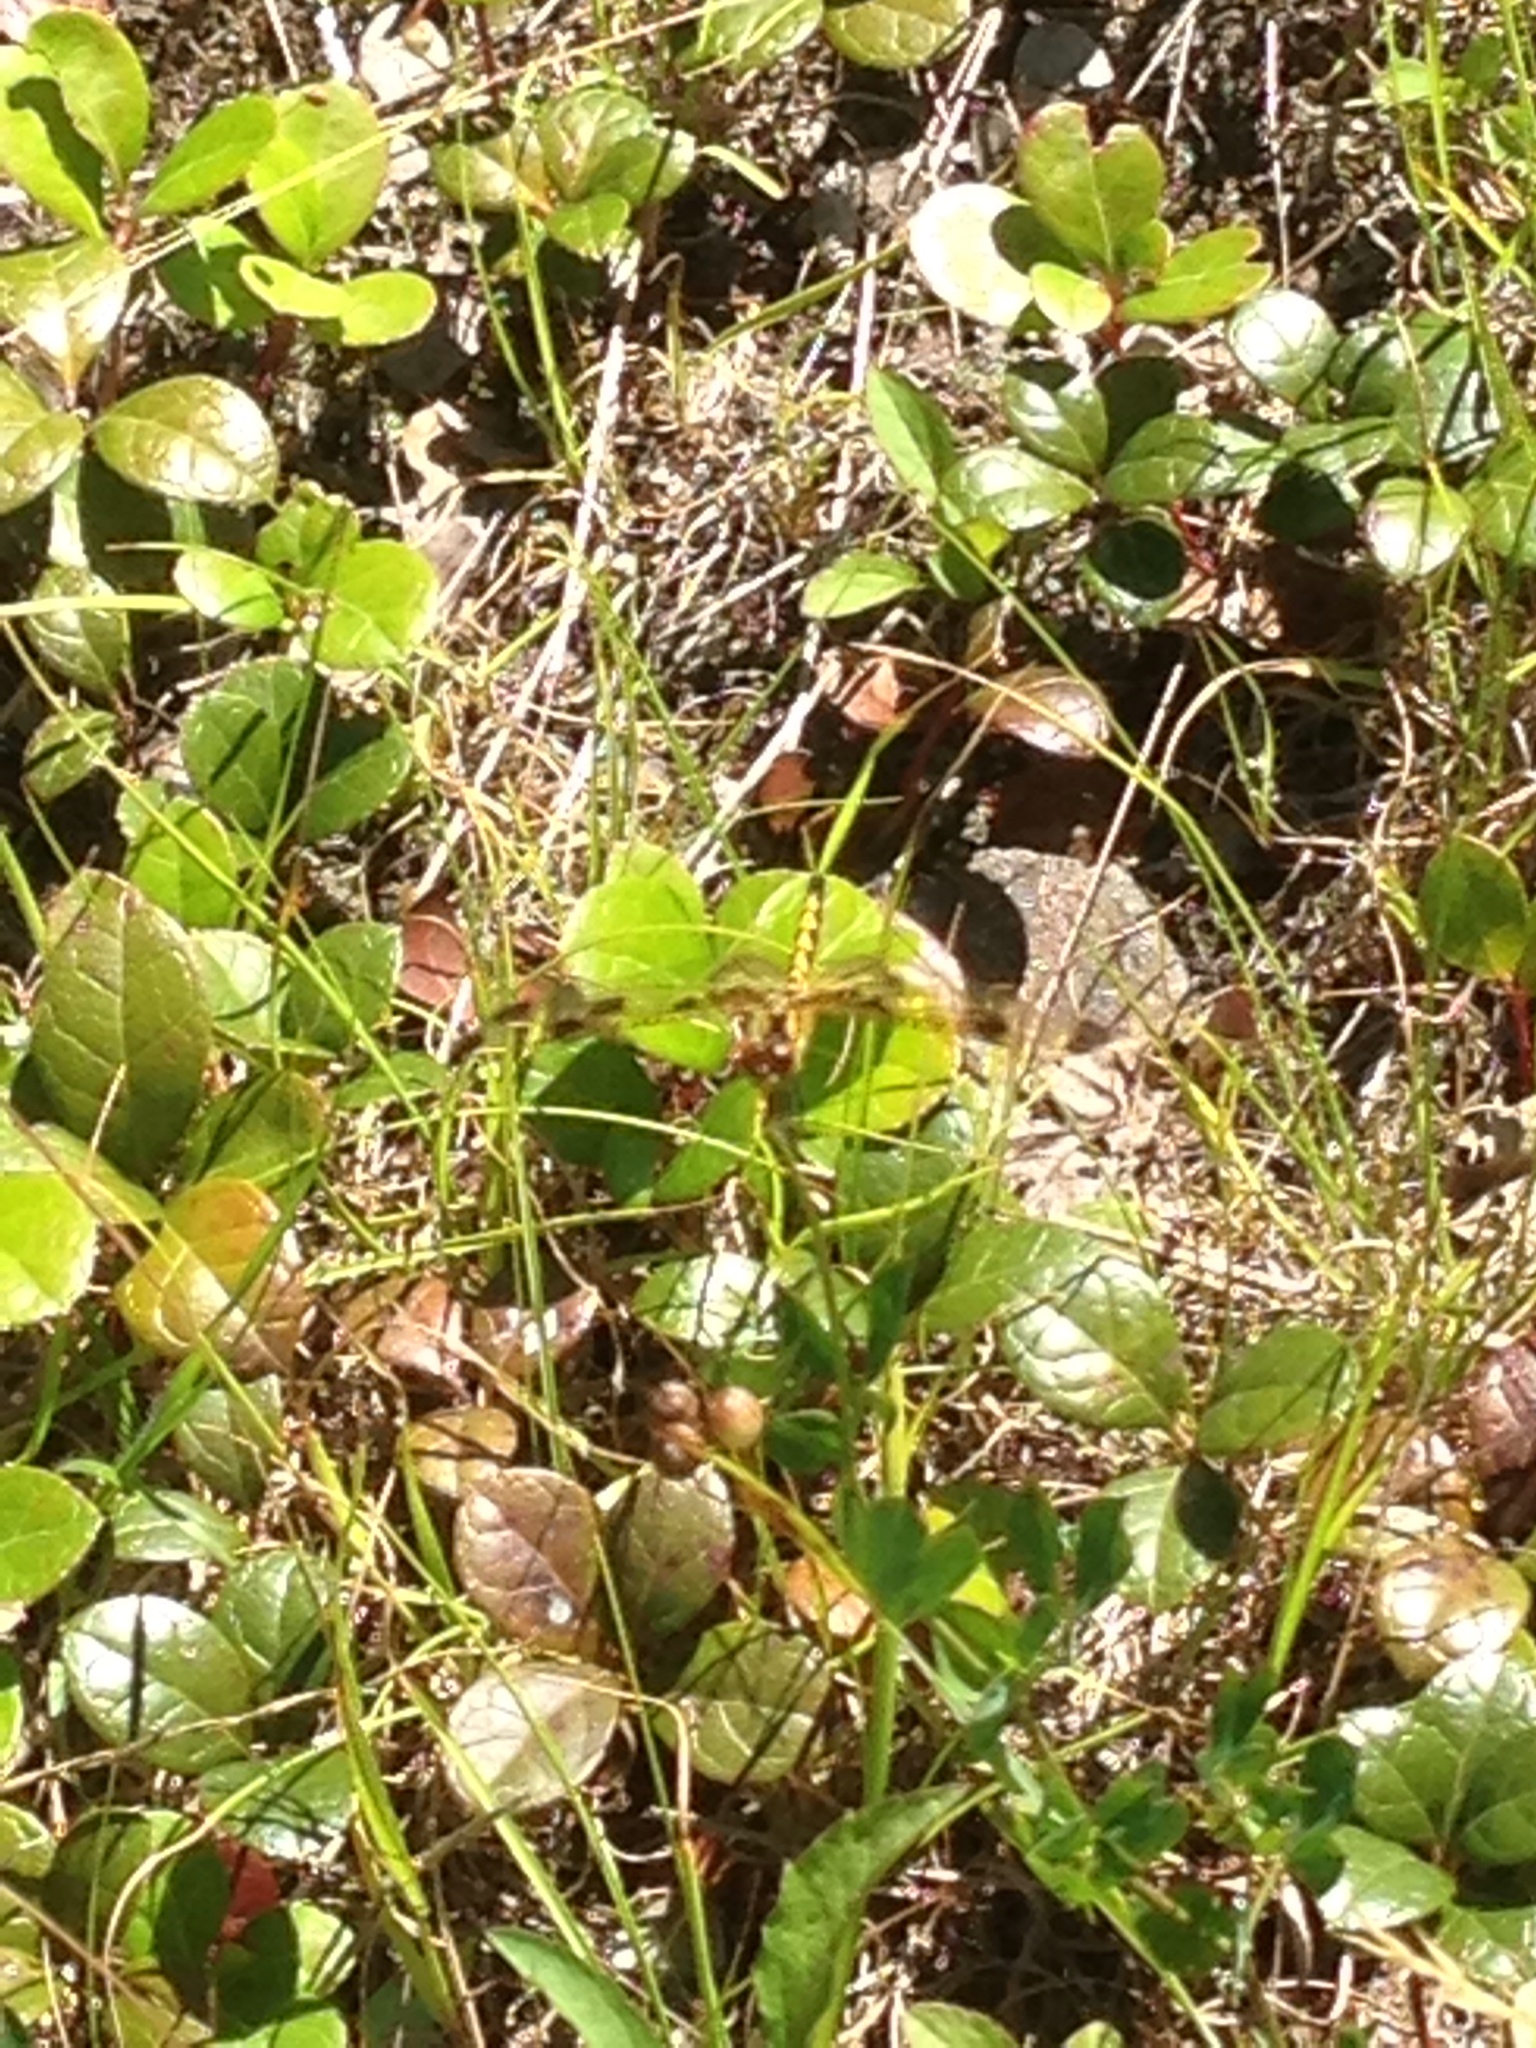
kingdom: Animalia
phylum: Arthropoda
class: Insecta
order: Odonata
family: Libellulidae
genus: Celithemis
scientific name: Celithemis elisa
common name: Calico pennant
